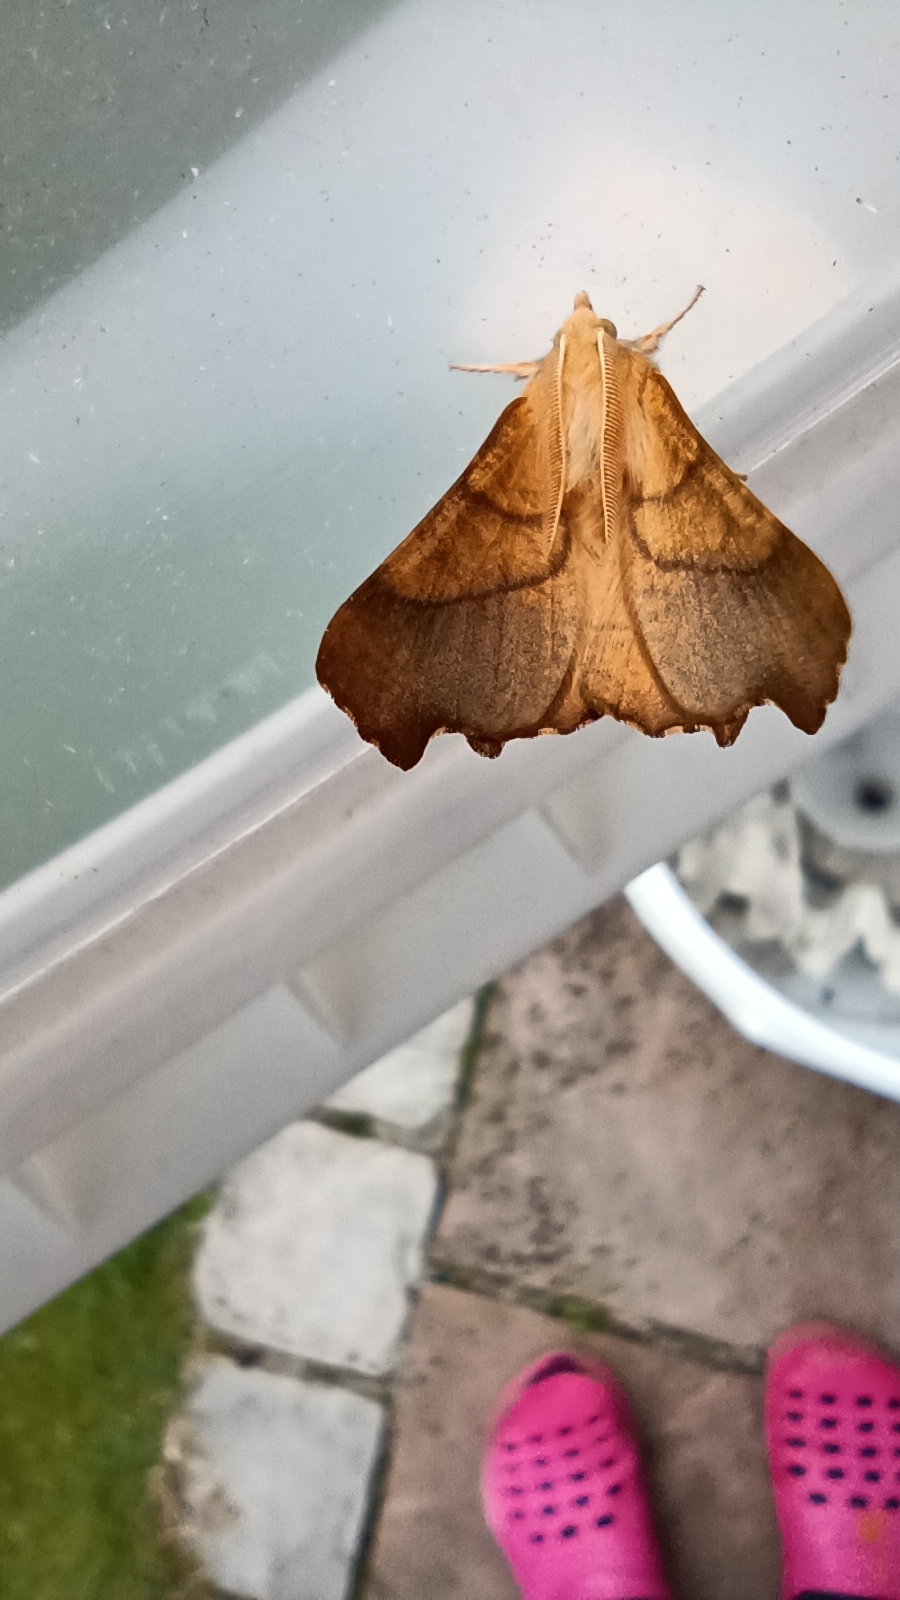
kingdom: Animalia
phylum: Arthropoda
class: Insecta
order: Lepidoptera
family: Geometridae
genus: Ennomos
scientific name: Ennomos fuscantaria
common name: Dusky thorn
